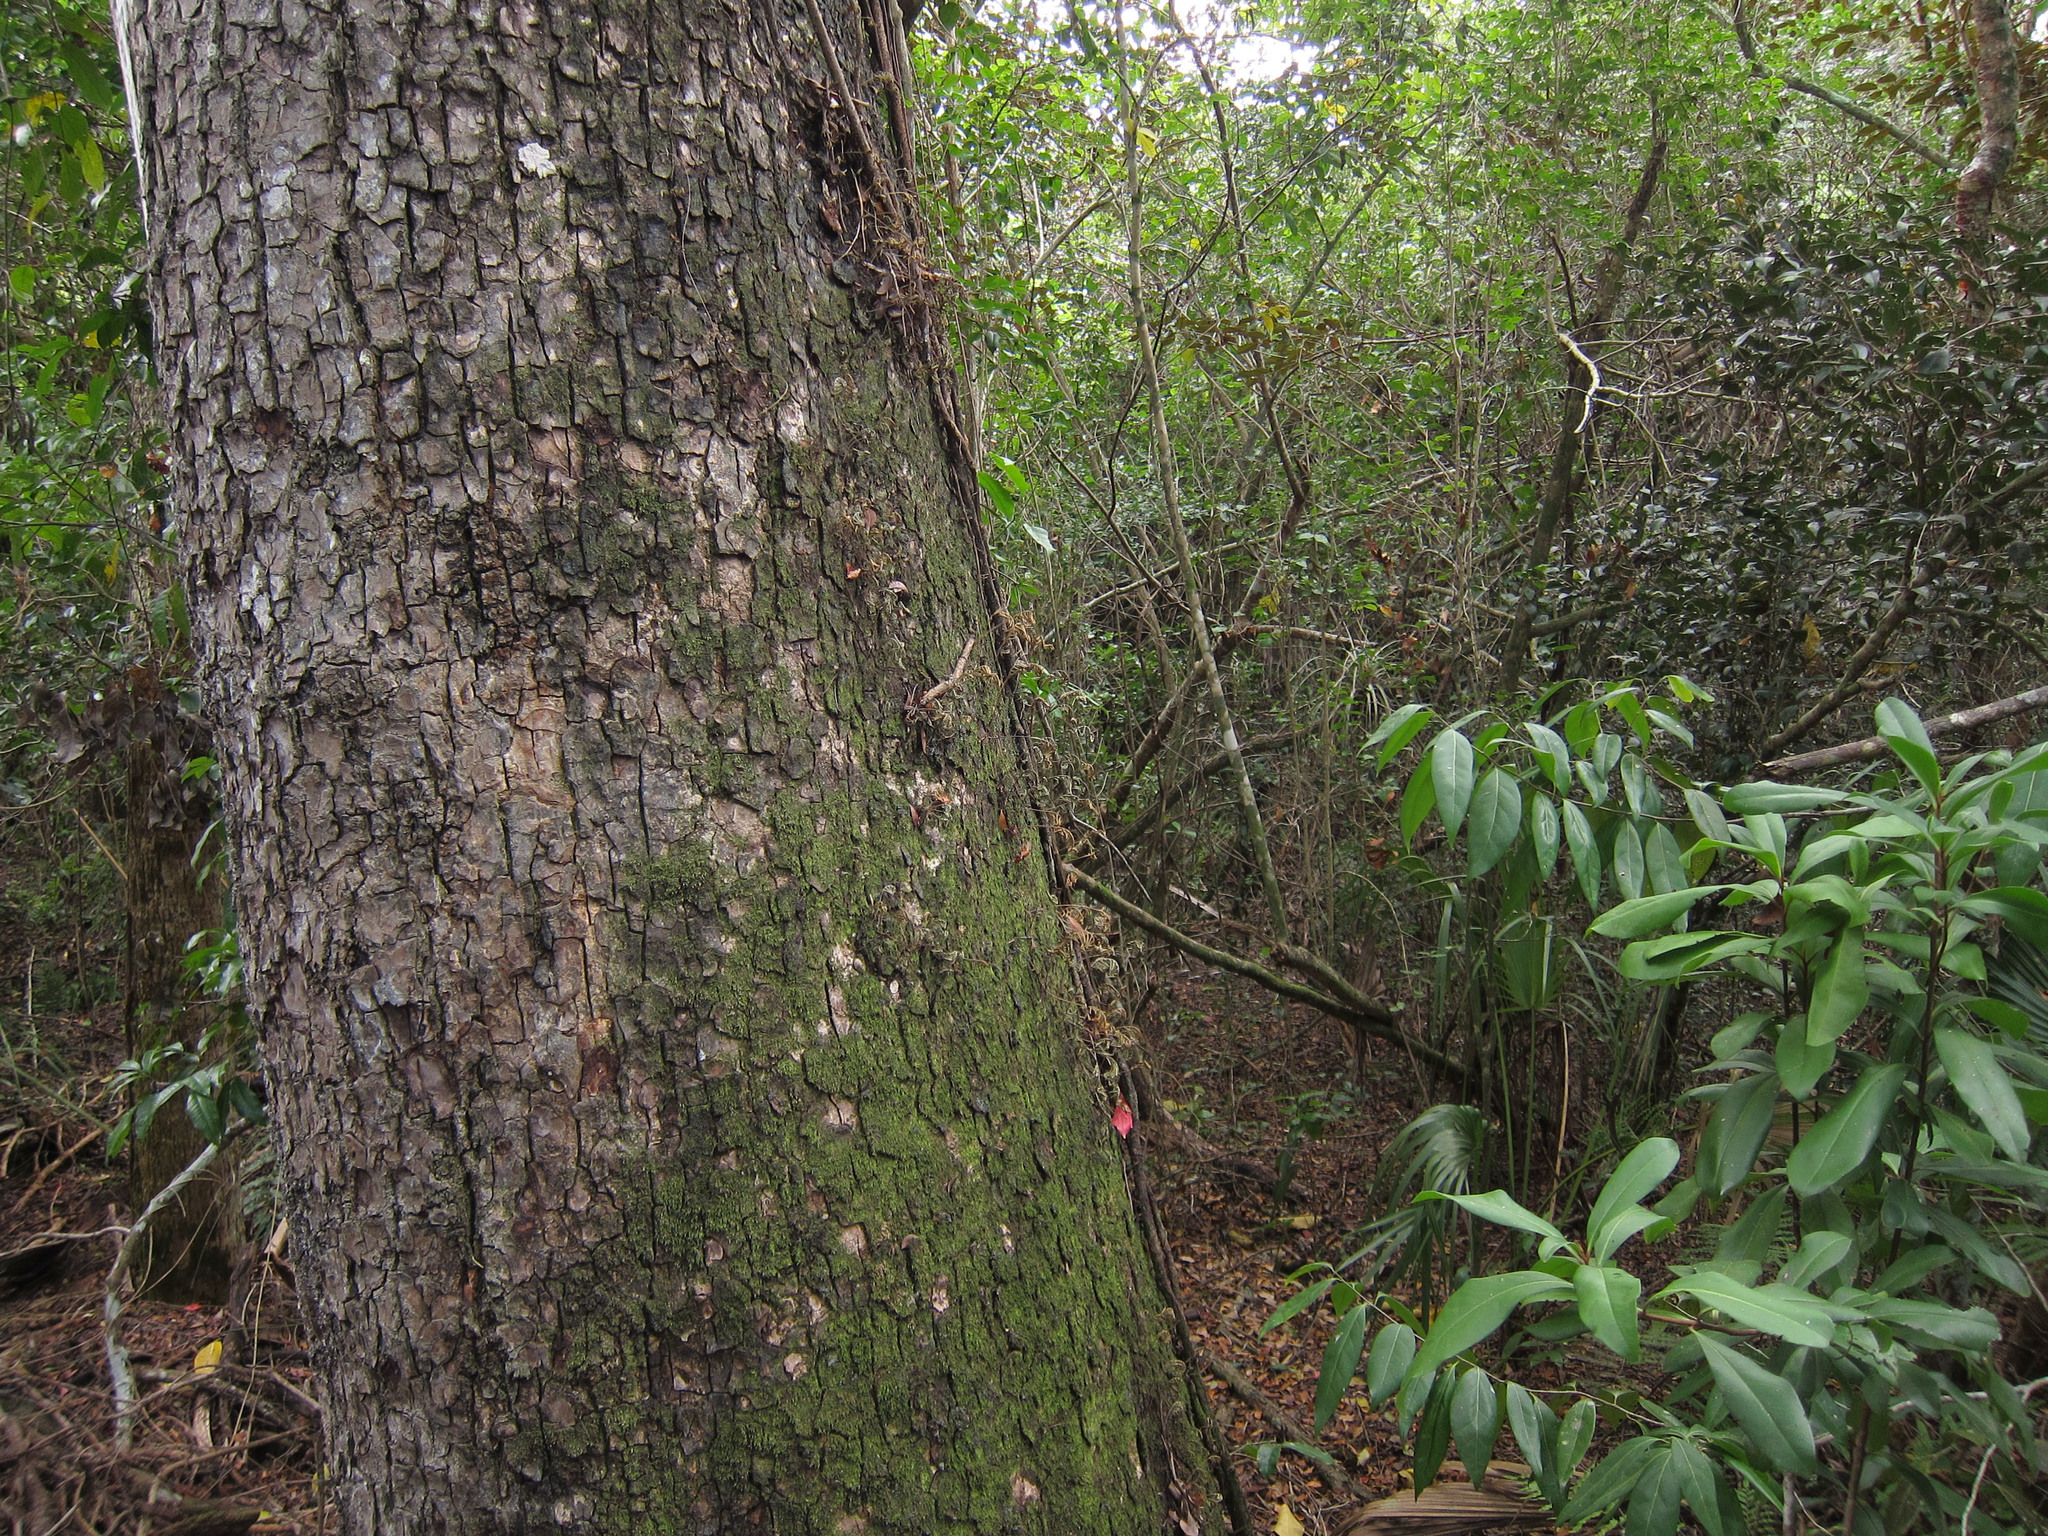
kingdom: Plantae
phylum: Tracheophyta
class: Magnoliopsida
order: Sapindales
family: Meliaceae
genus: Swietenia
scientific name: Swietenia mahagoni
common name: West indian mahogany
